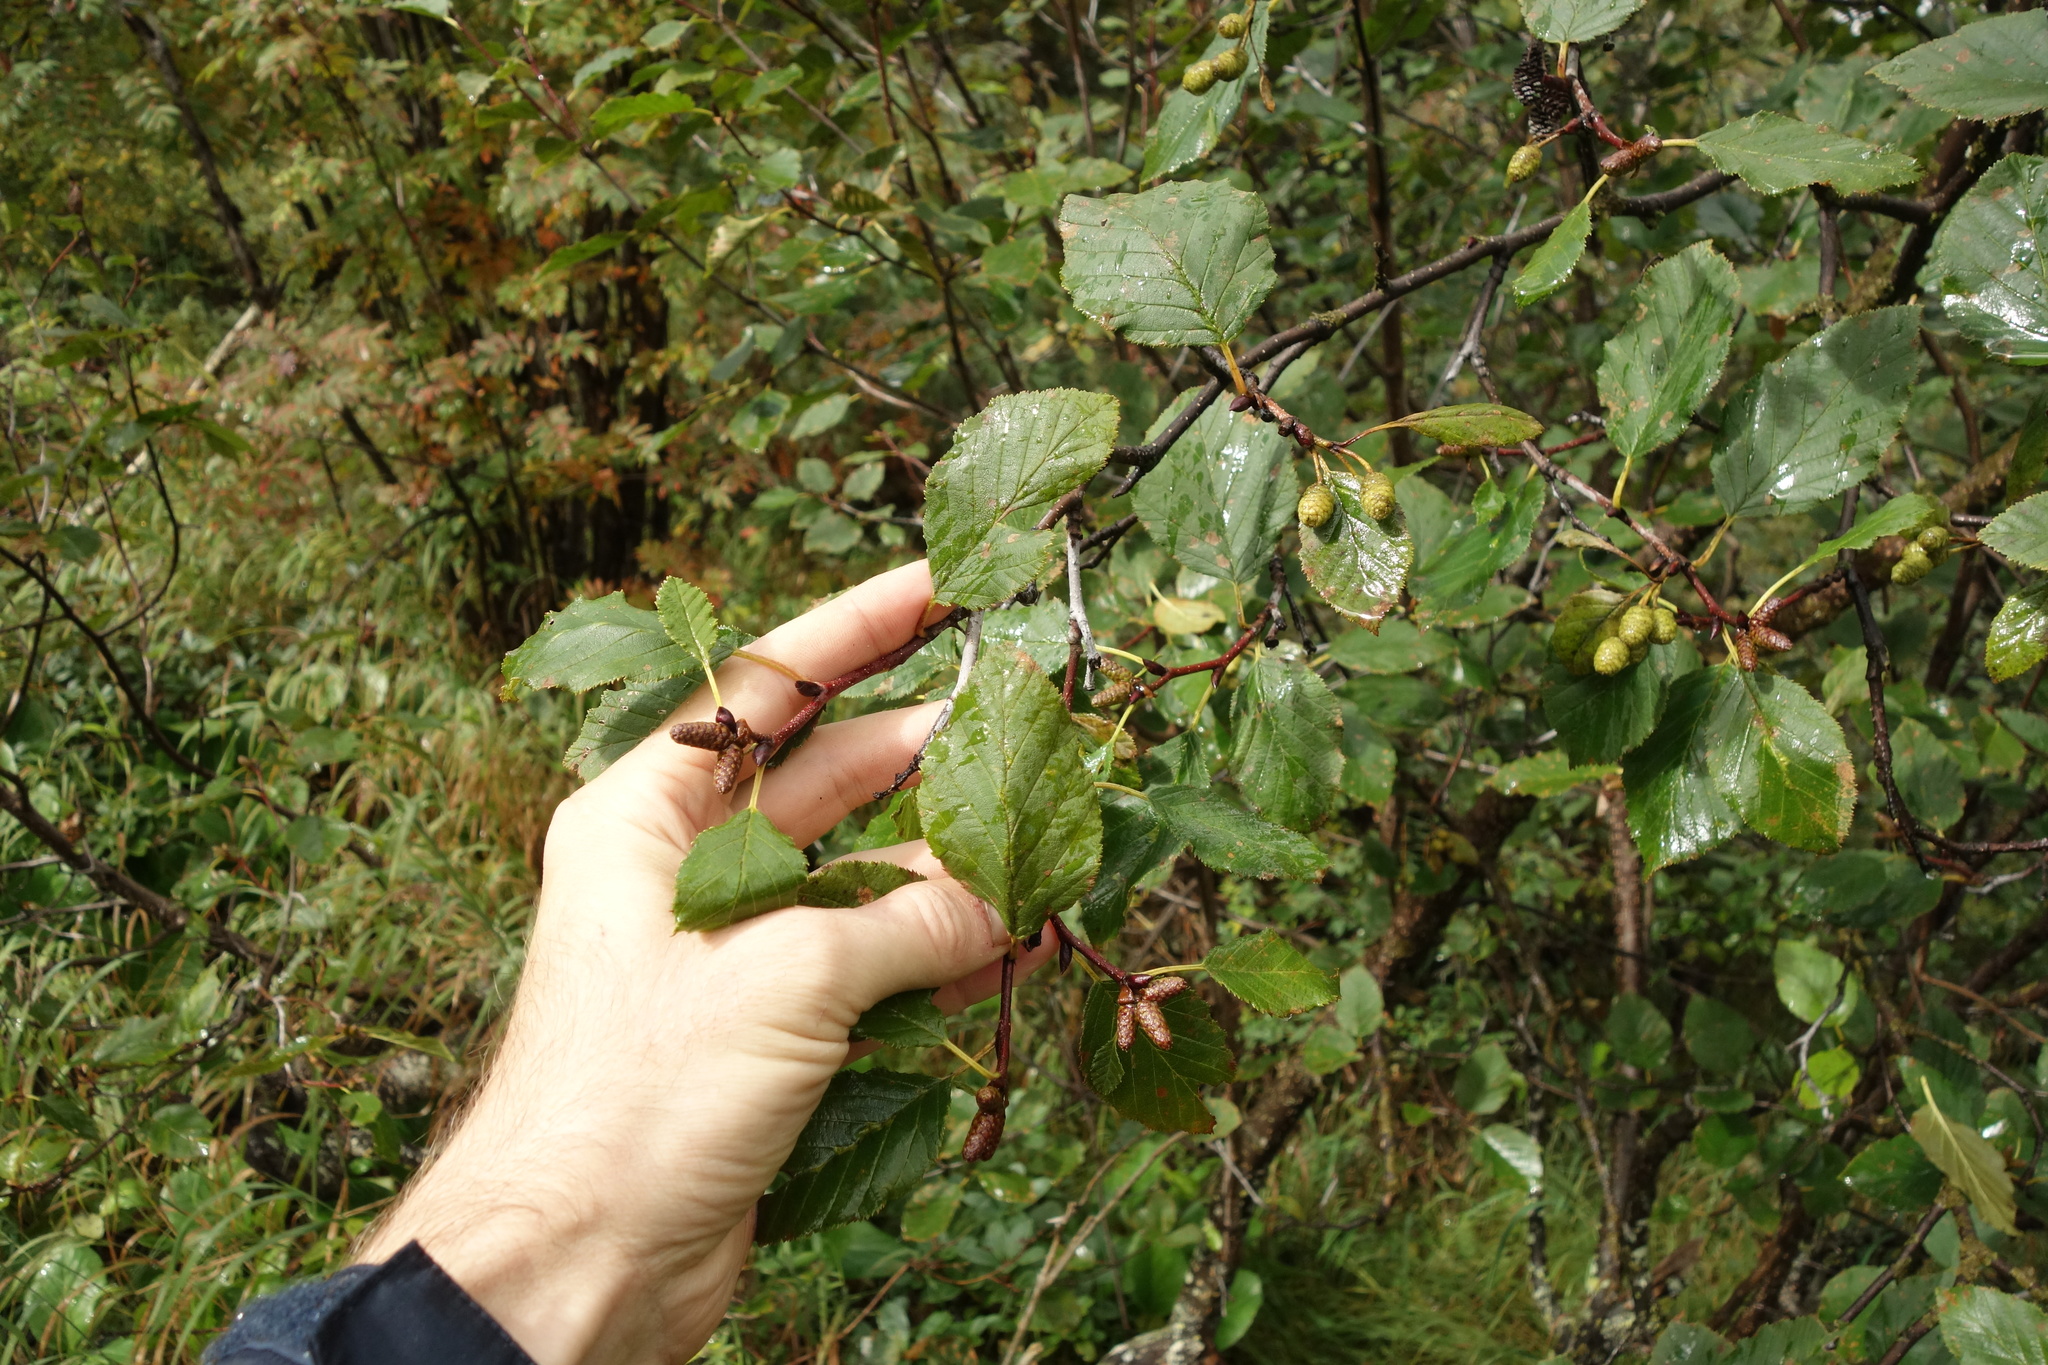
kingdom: Plantae
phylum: Tracheophyta
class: Magnoliopsida
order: Fagales
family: Betulaceae
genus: Alnus
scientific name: Alnus alnobetula
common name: Green alder
